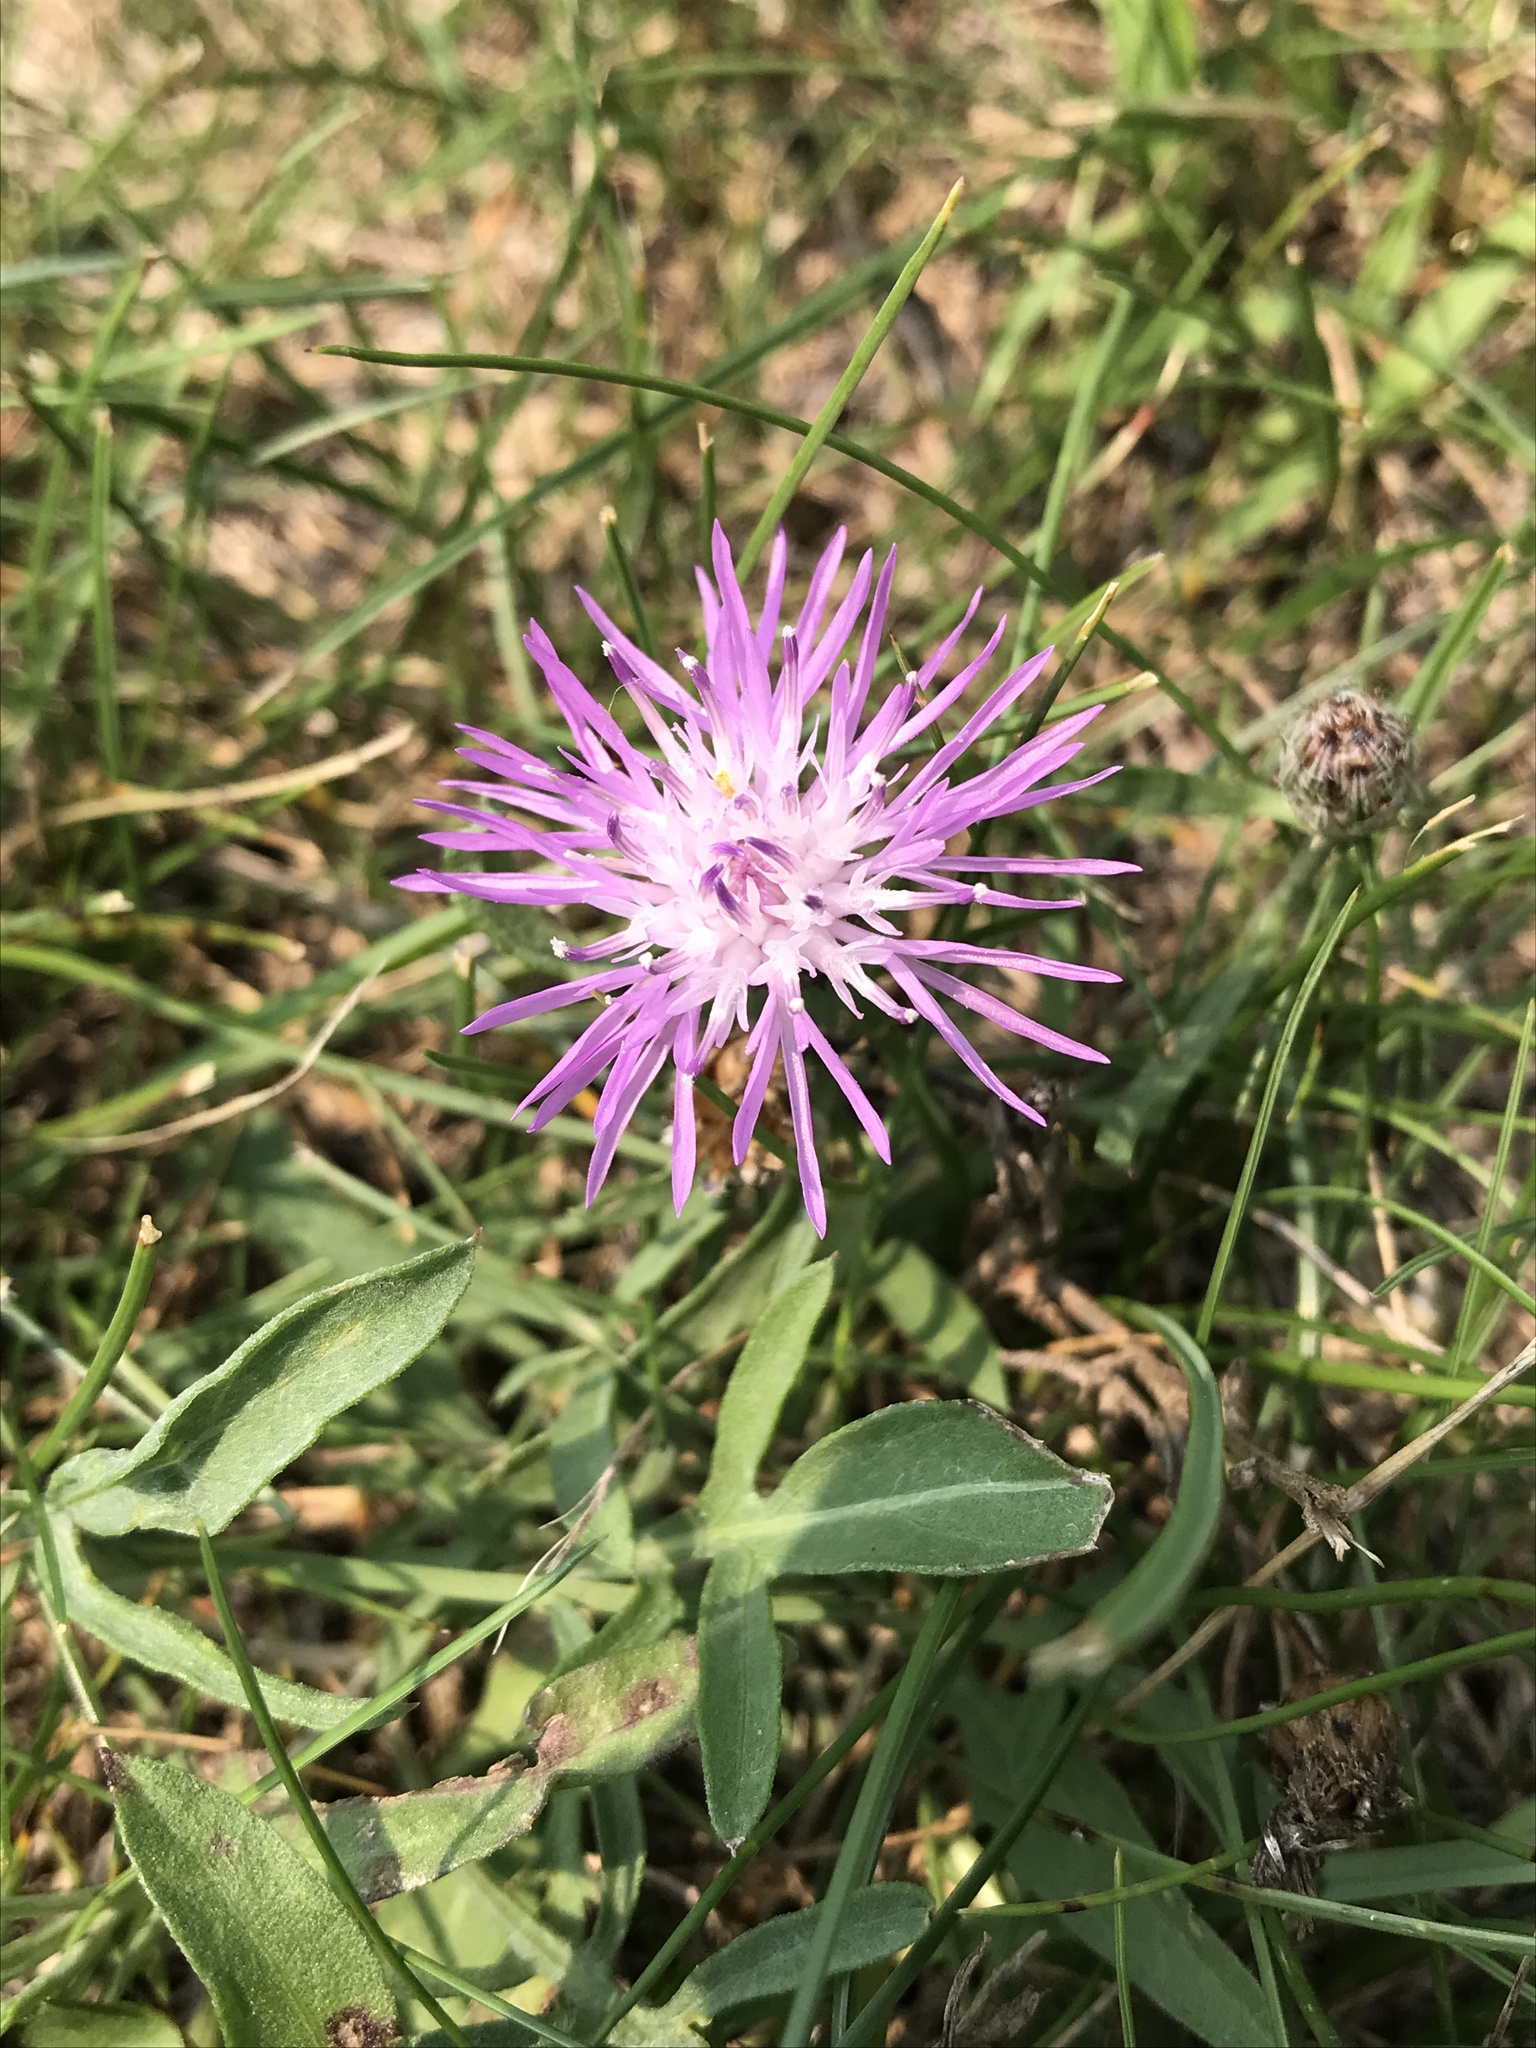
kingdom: Plantae
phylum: Tracheophyta
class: Magnoliopsida
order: Asterales
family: Asteraceae
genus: Centaurea
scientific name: Centaurea stoebe
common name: Spotted knapweed
